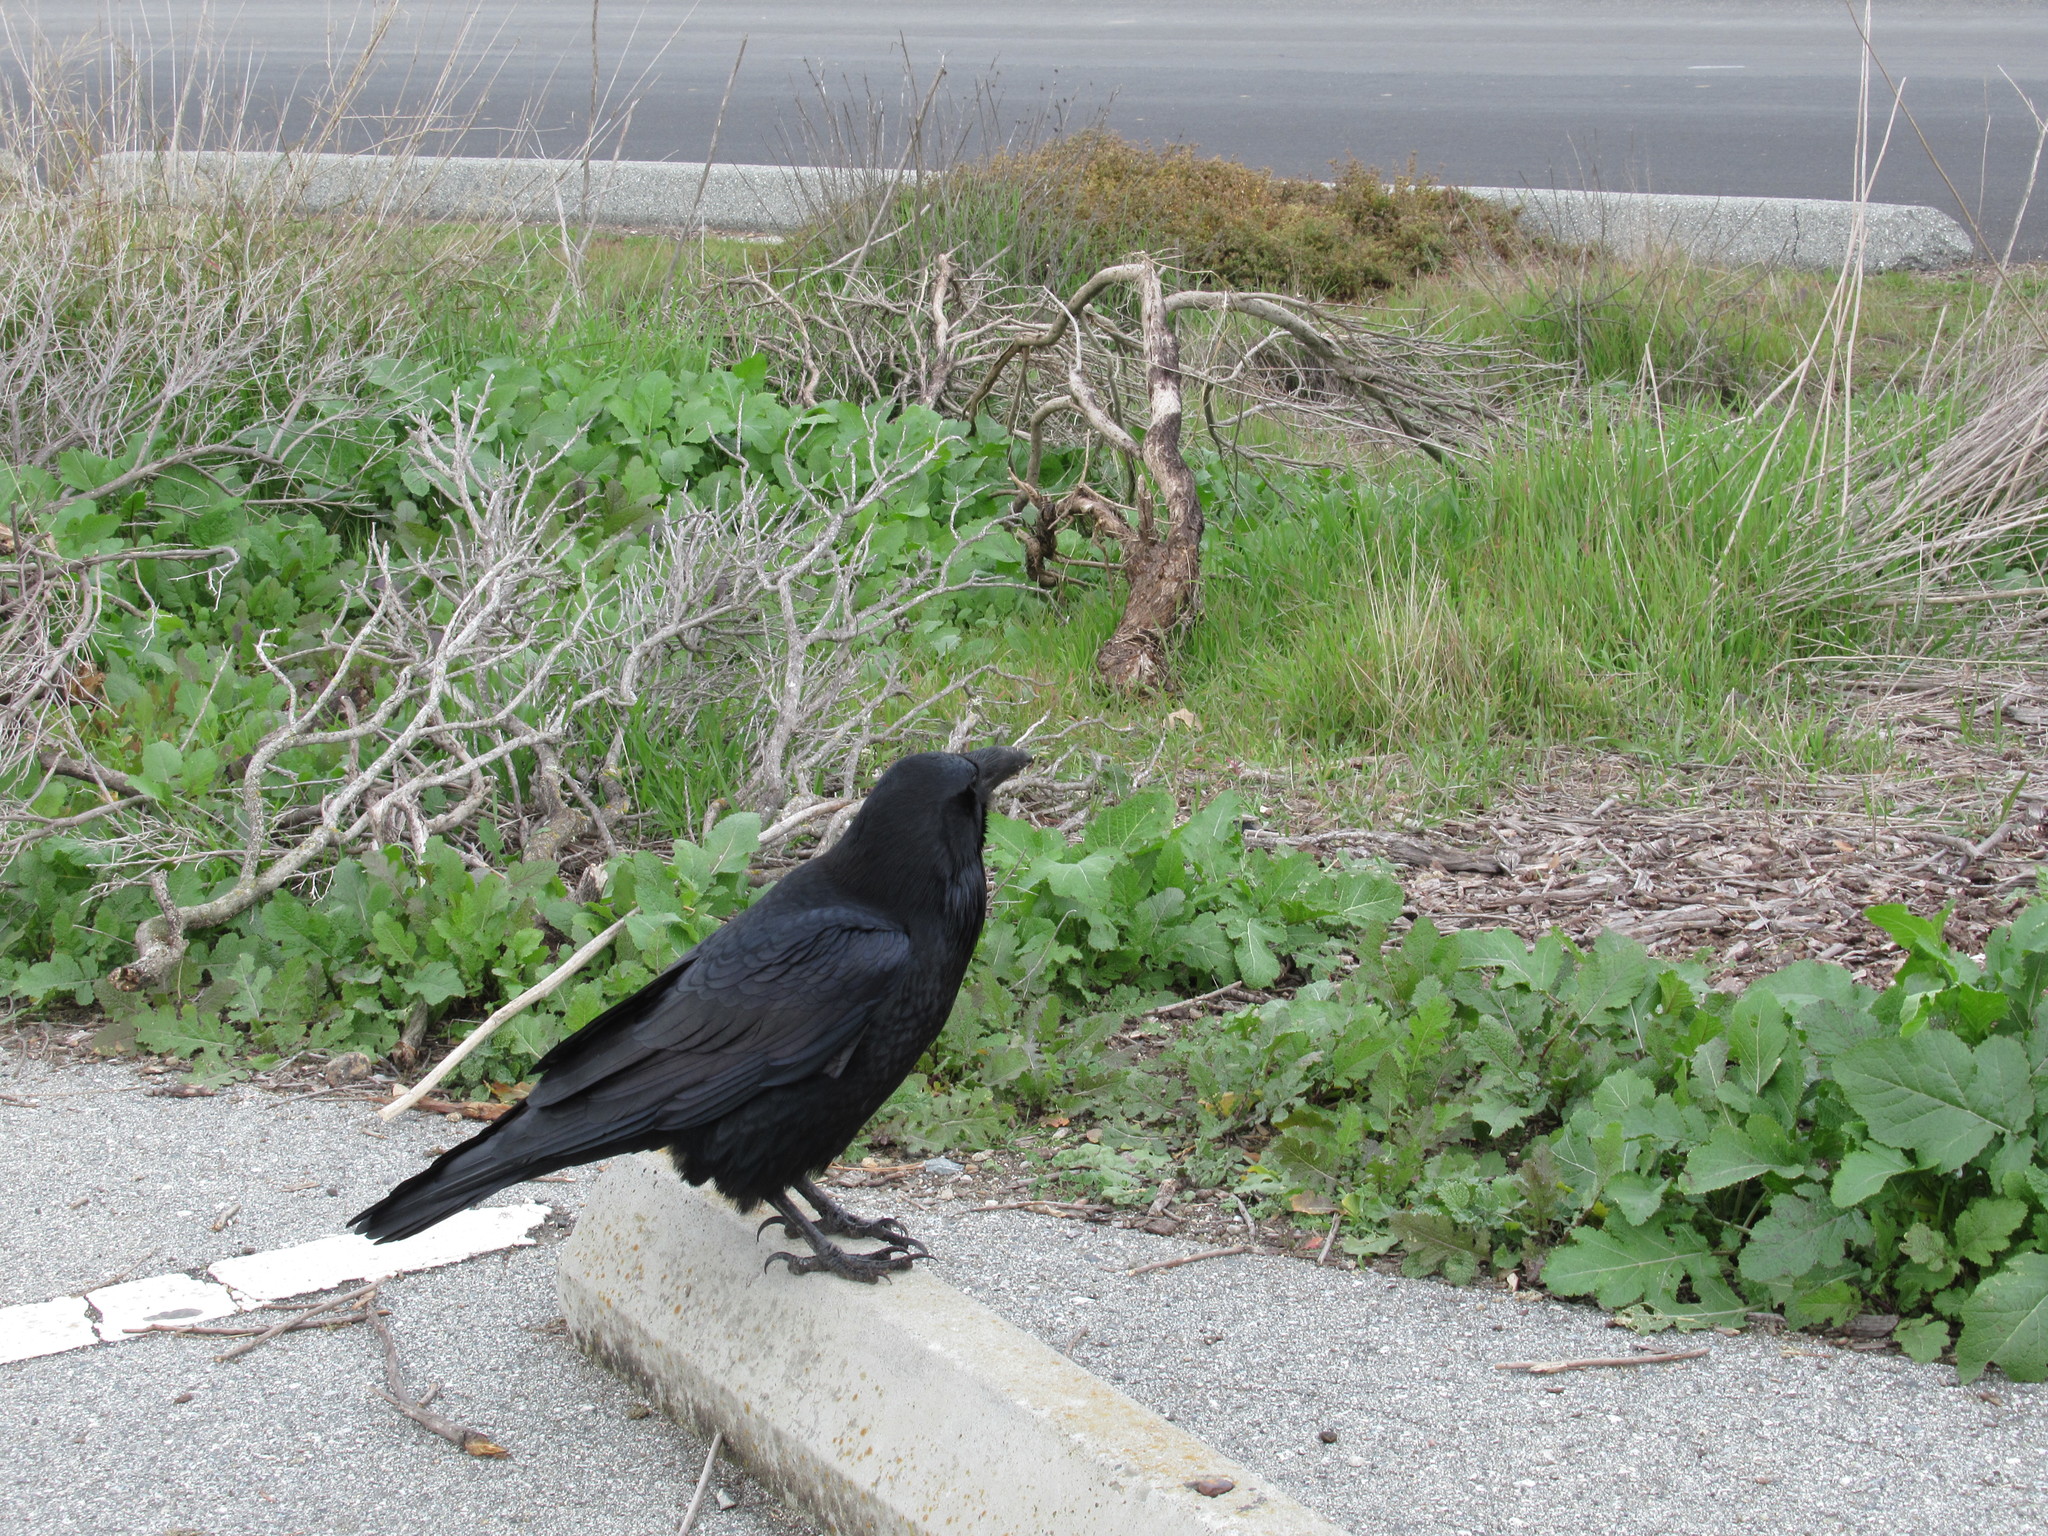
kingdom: Animalia
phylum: Chordata
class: Aves
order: Passeriformes
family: Corvidae
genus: Corvus
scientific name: Corvus corax
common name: Common raven
